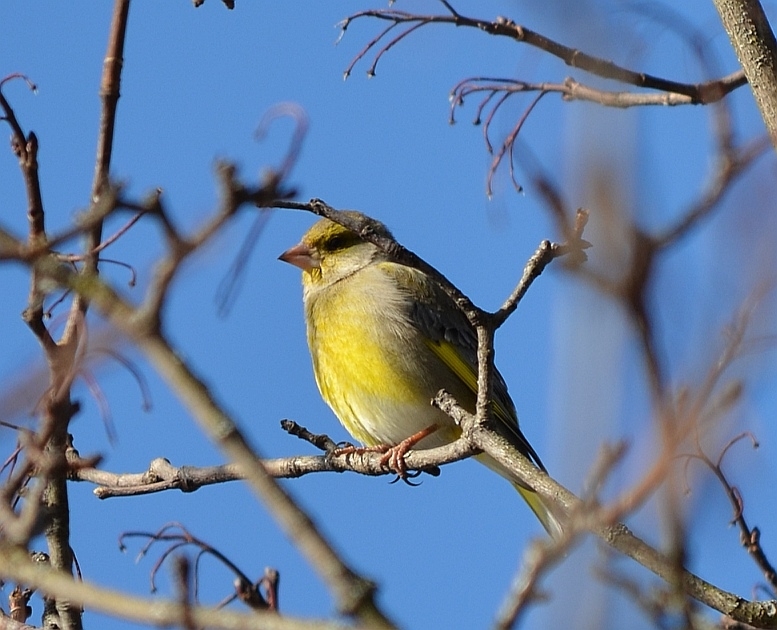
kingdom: Plantae
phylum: Tracheophyta
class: Liliopsida
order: Poales
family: Poaceae
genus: Chloris
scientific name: Chloris chloris
